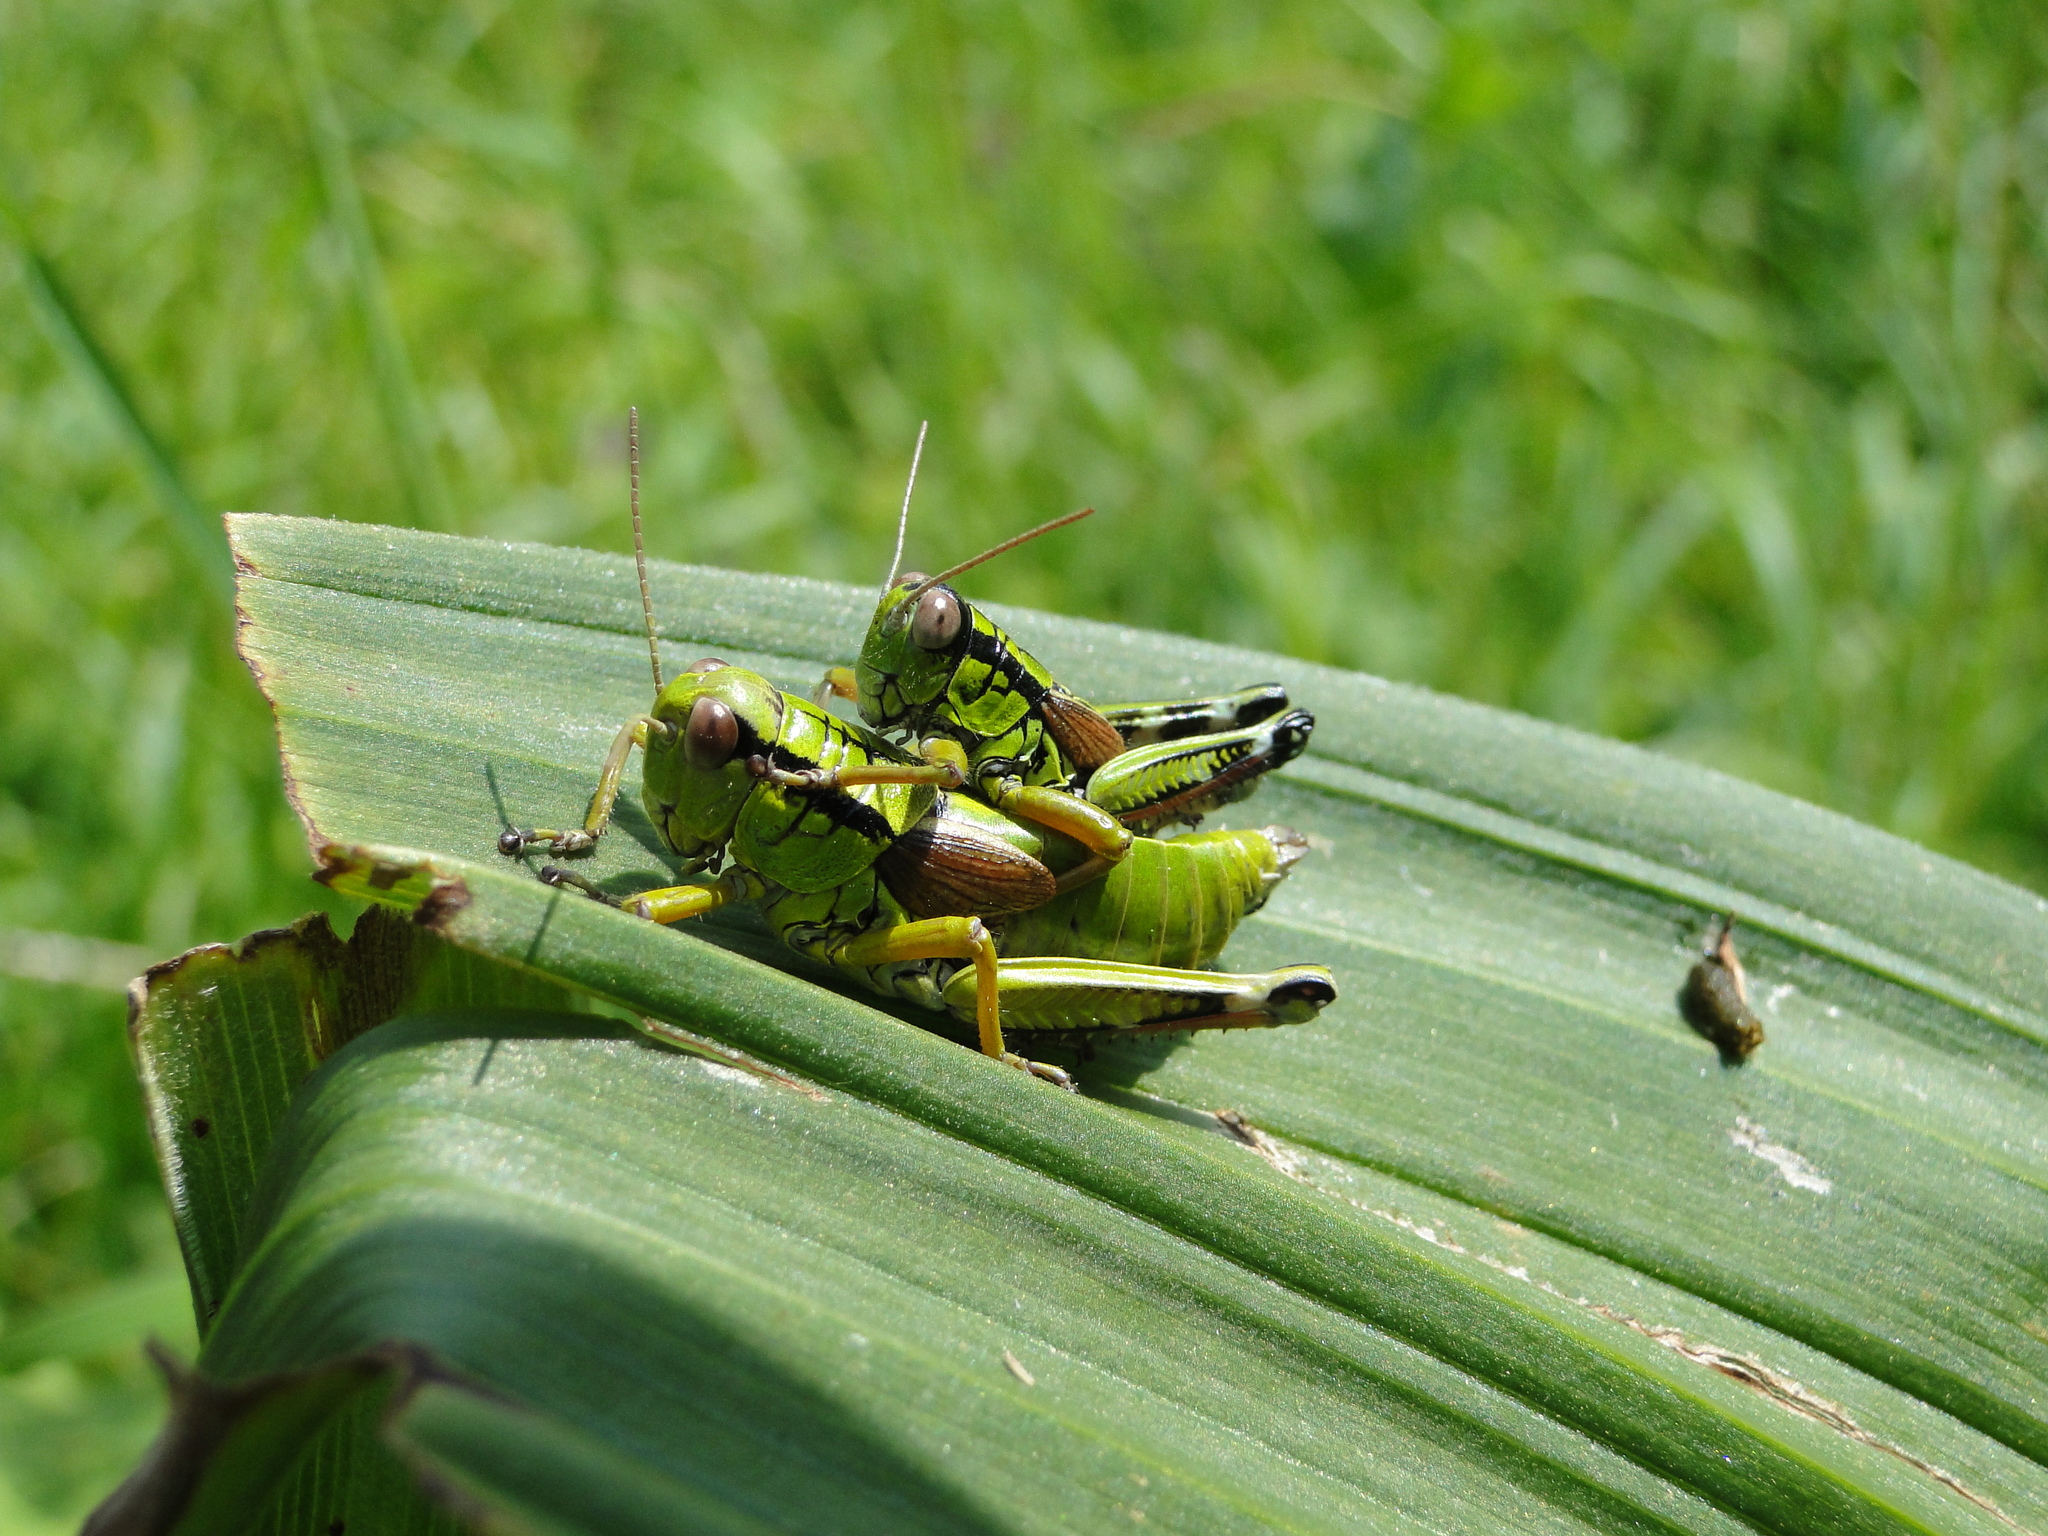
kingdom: Animalia
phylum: Arthropoda
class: Insecta
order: Orthoptera
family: Acrididae
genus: Miramella
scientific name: Miramella alpina
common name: Green mountain grasshopper
